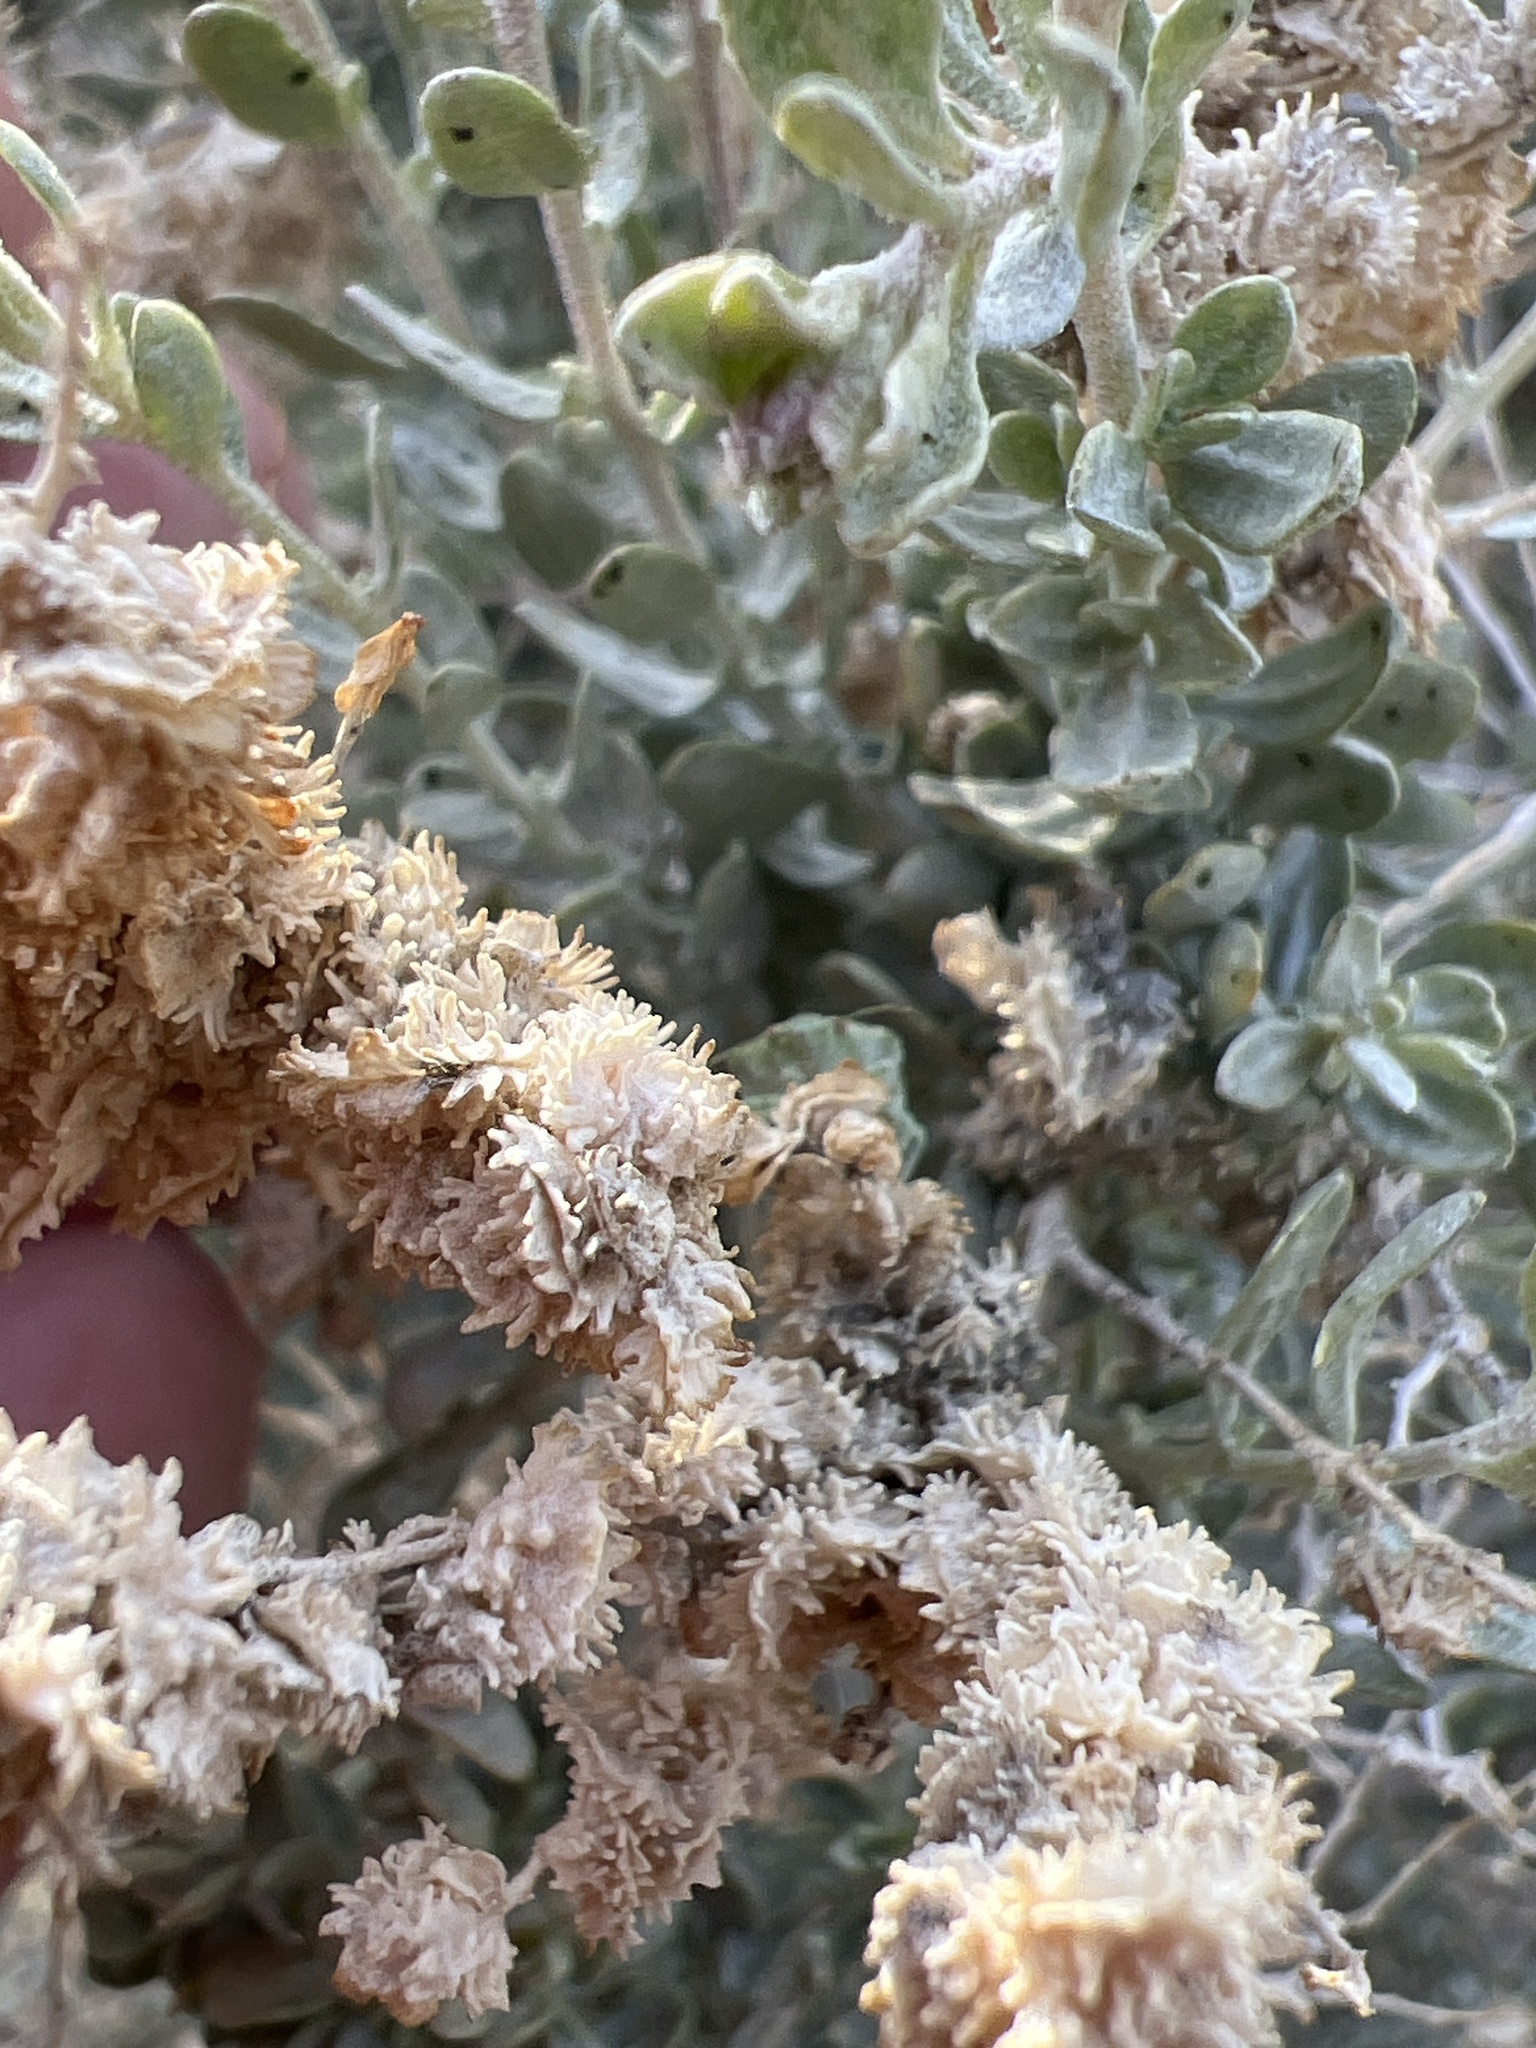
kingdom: Plantae
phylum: Tracheophyta
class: Magnoliopsida
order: Caryophyllales
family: Amaranthaceae
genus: Atriplex
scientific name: Atriplex polycarpa
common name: Desert saltbush
